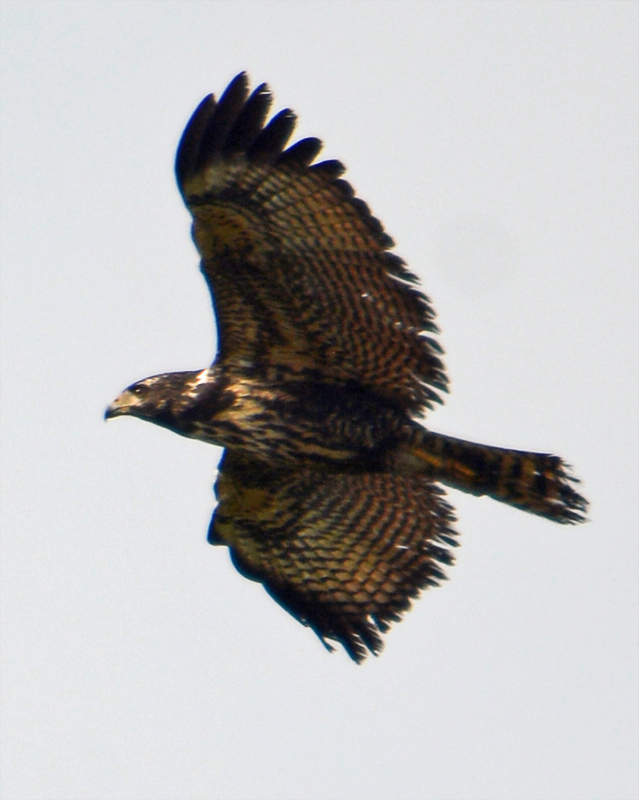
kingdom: Animalia
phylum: Chordata
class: Aves
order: Accipitriformes
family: Accipitridae
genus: Buteogallus
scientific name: Buteogallus anthracinus
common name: Common black hawk
